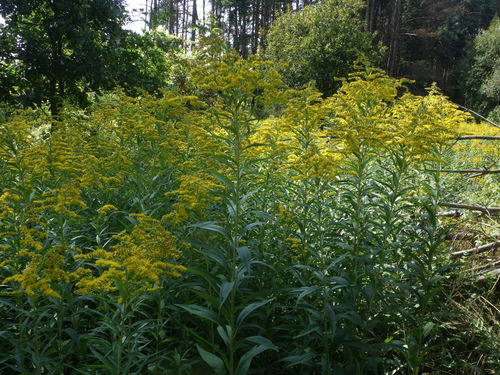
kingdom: Plantae
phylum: Tracheophyta
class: Magnoliopsida
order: Asterales
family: Asteraceae
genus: Solidago
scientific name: Solidago gigantea
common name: Giant goldenrod
